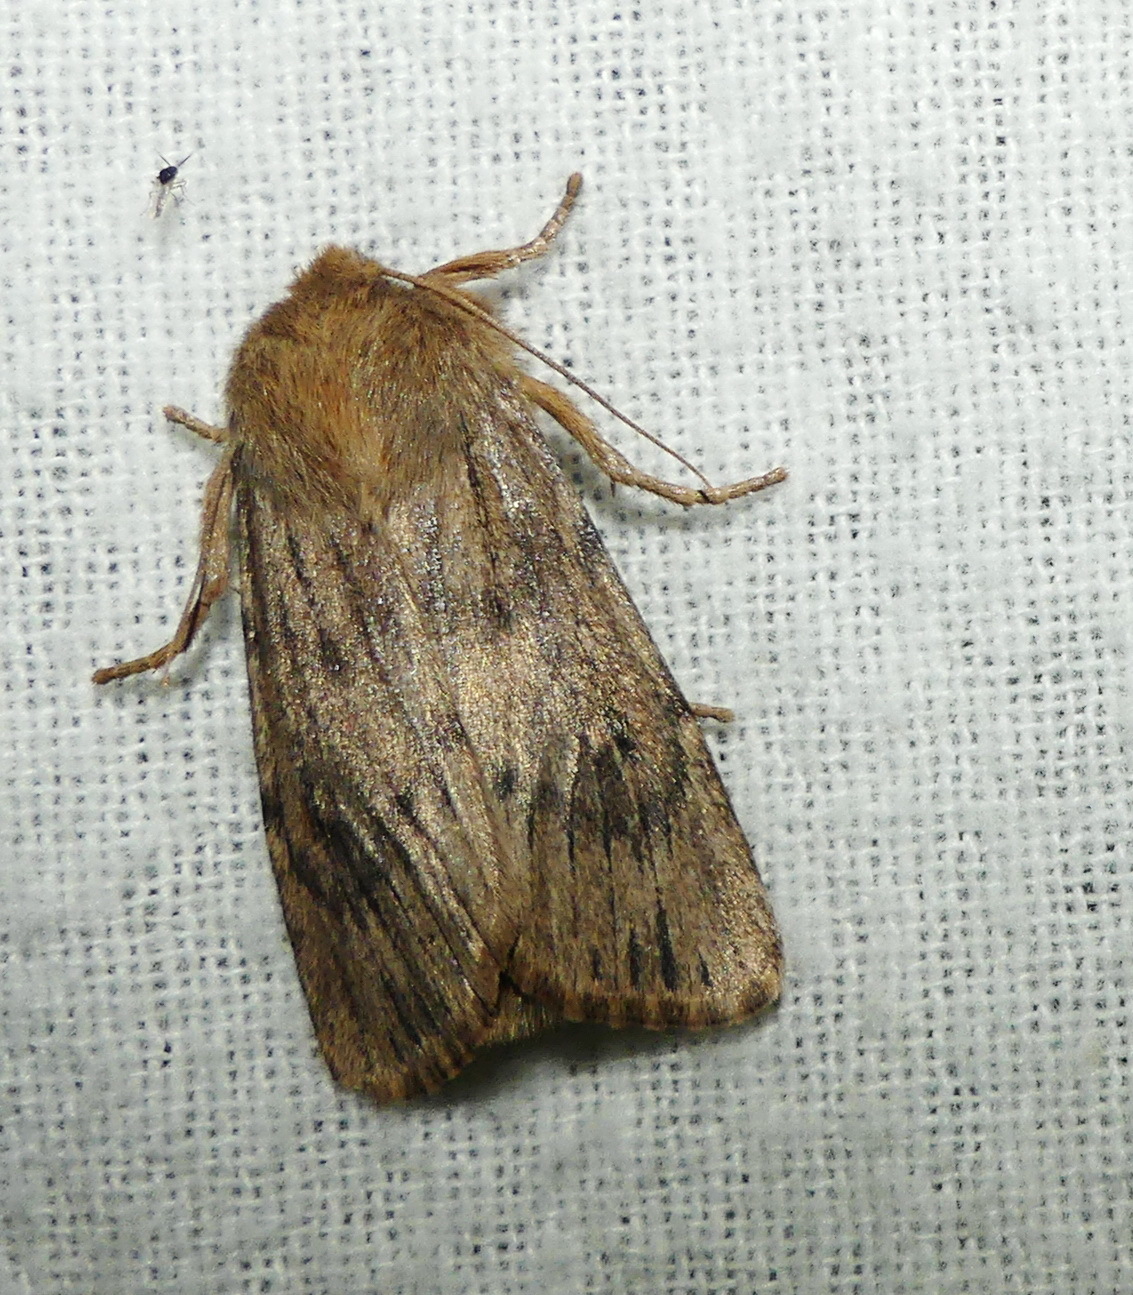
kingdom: Animalia
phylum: Arthropoda
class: Insecta
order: Lepidoptera
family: Noctuidae
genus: Ufeus
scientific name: Ufeus satyricus
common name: Brown satyr moth
